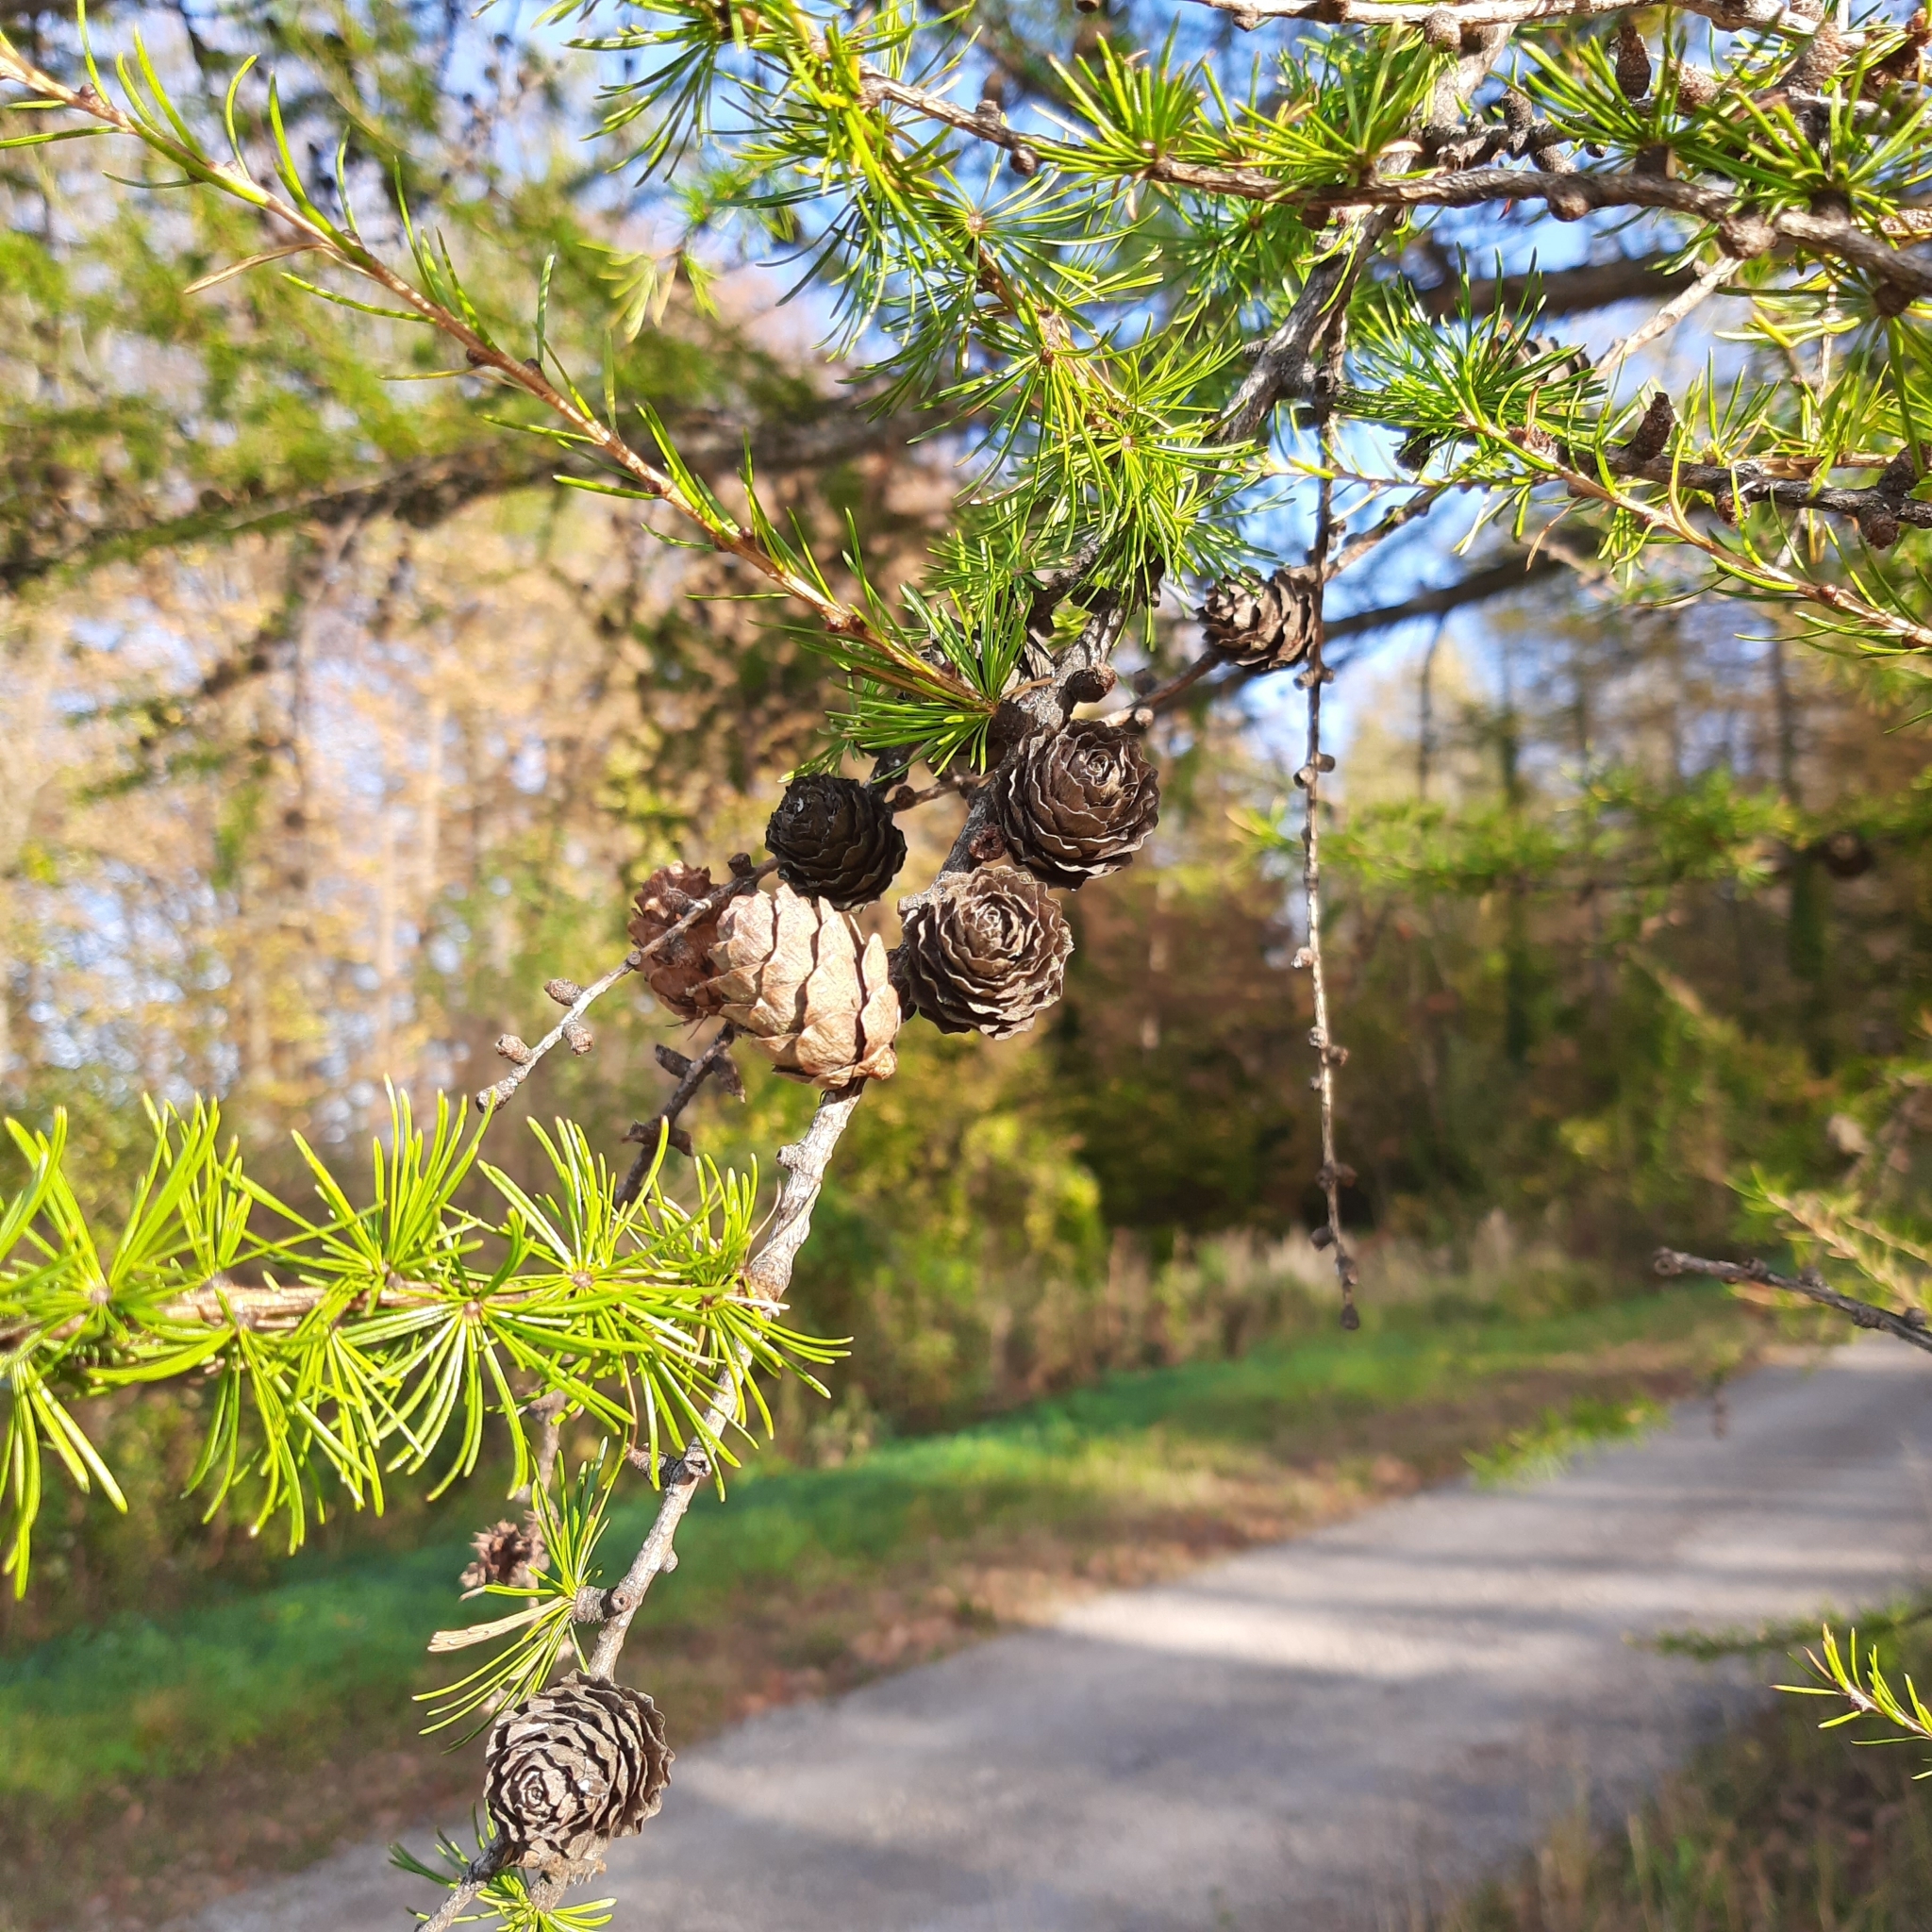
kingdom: Plantae
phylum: Tracheophyta
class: Pinopsida
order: Pinales
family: Pinaceae
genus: Larix
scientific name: Larix decidua
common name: European larch
